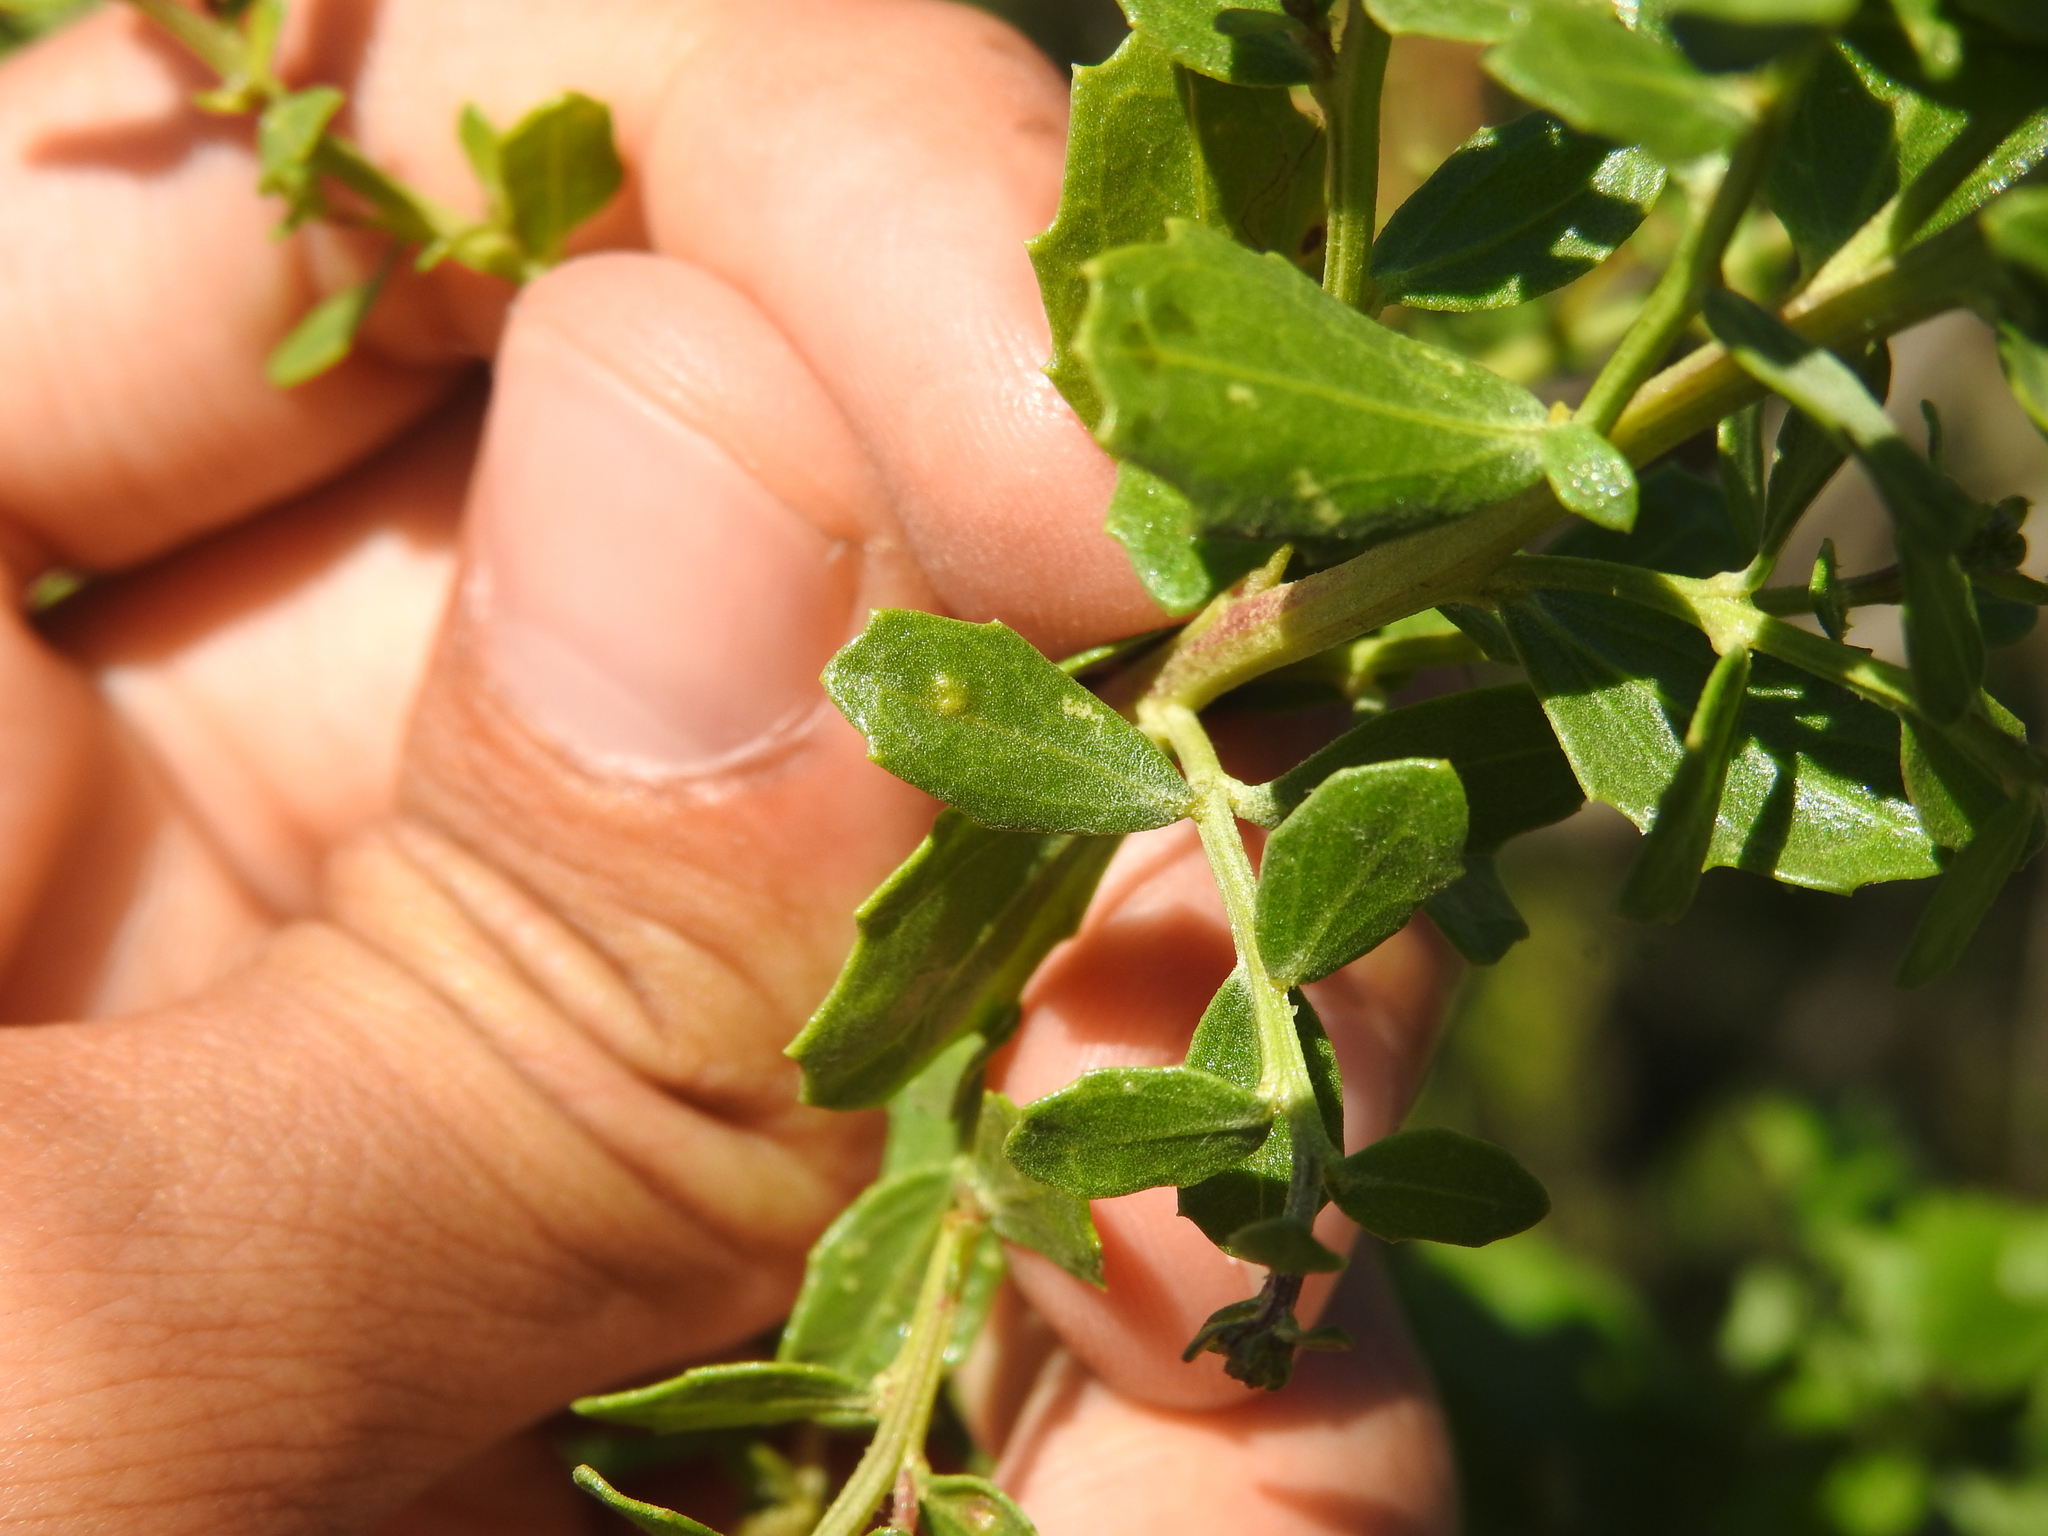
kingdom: Animalia
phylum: Arthropoda
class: Arachnida
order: Trombidiformes
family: Eriophyidae
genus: Aceria
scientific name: Aceria
